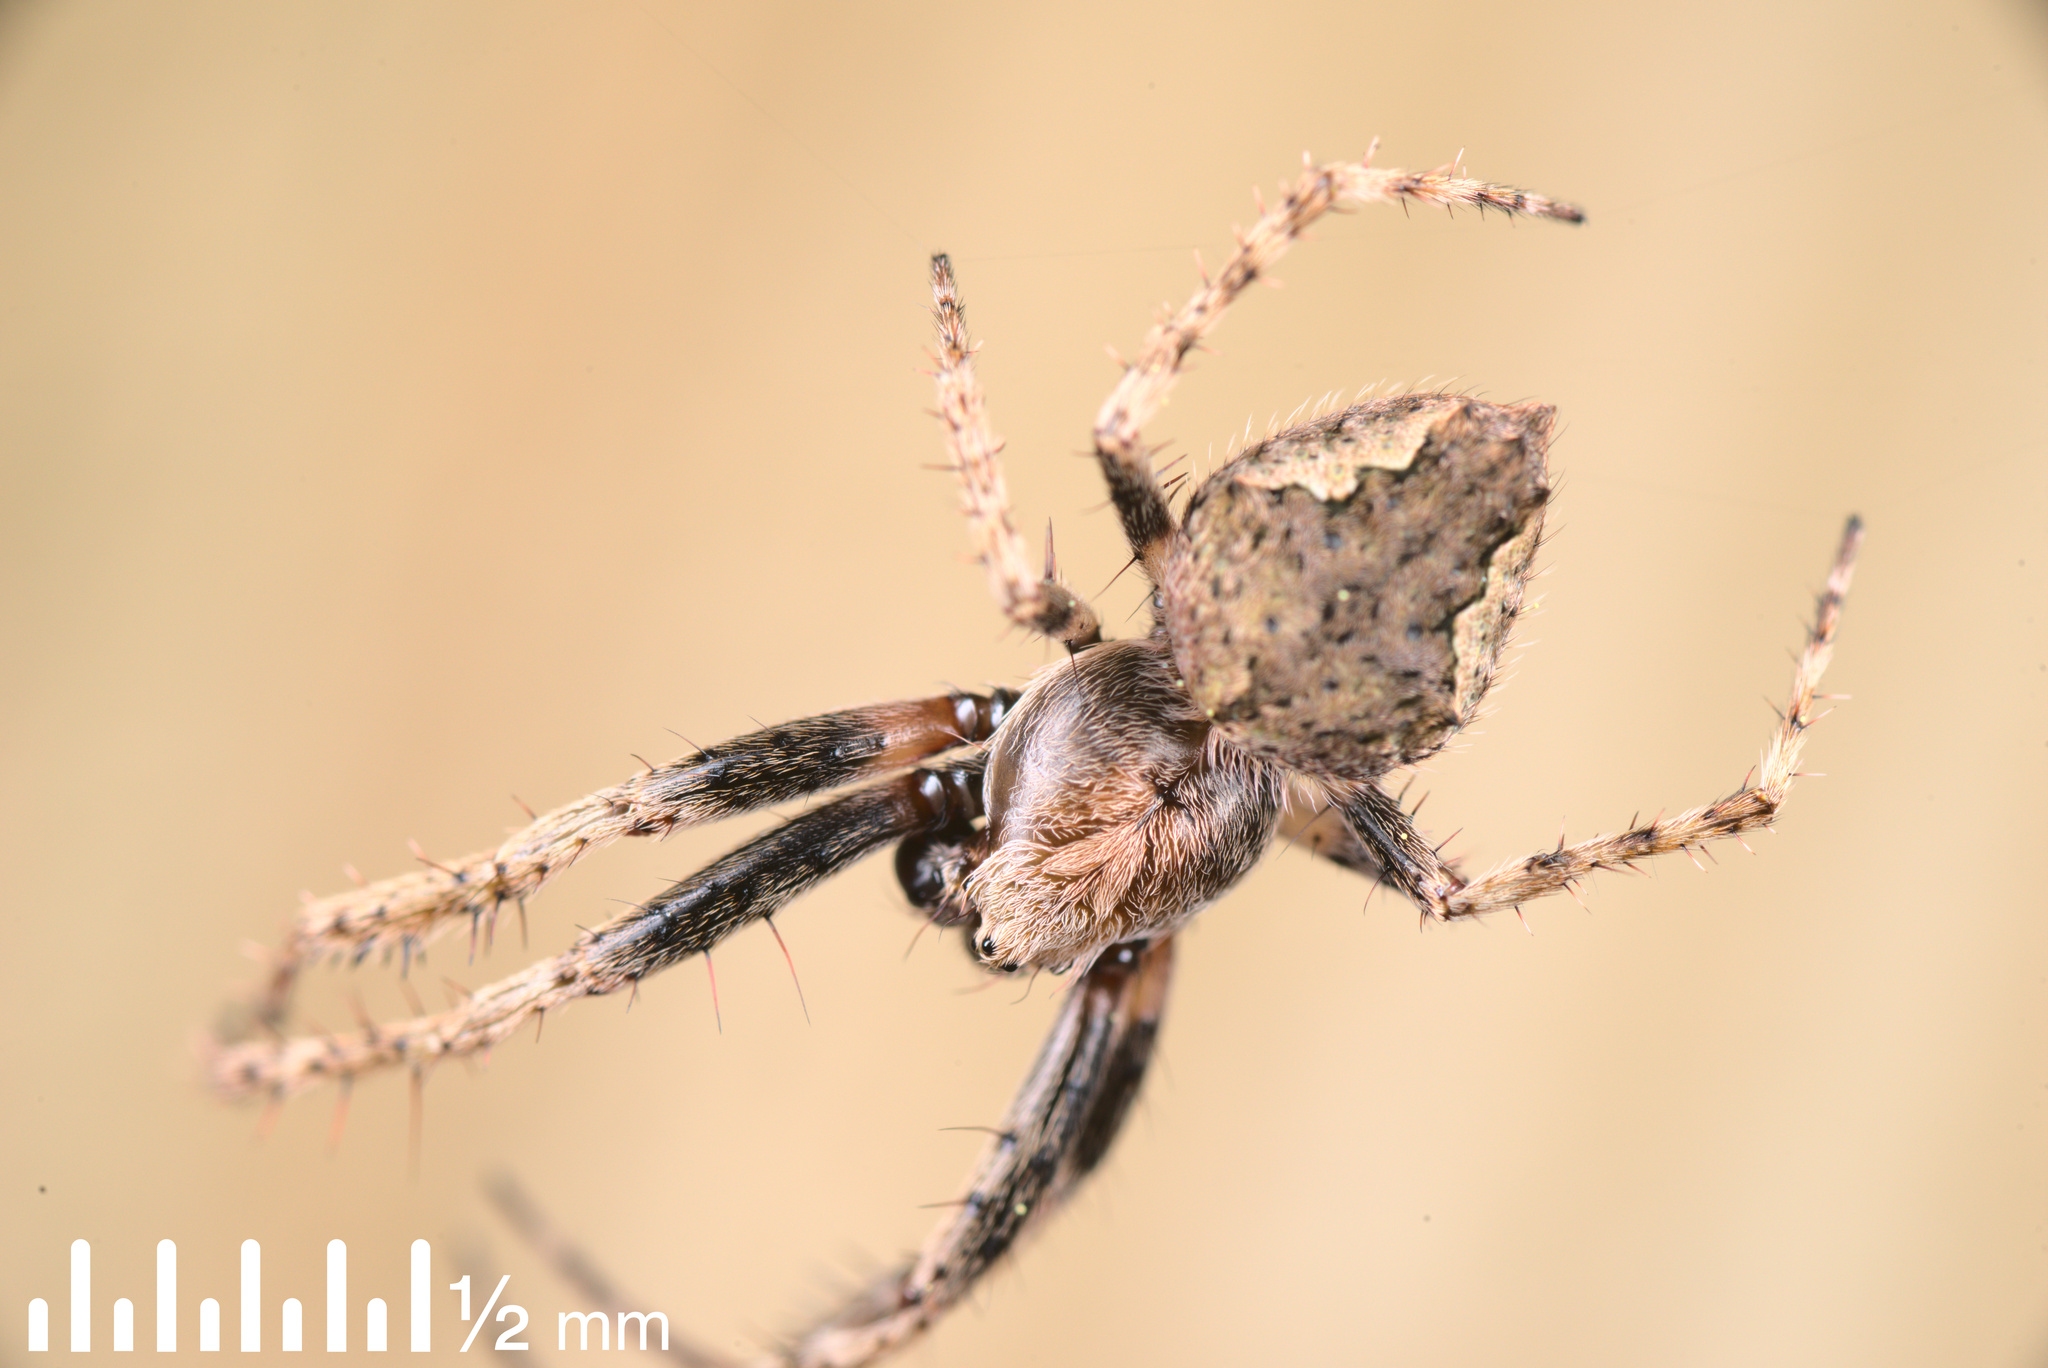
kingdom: Animalia
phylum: Arthropoda
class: Arachnida
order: Araneae
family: Araneidae
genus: Eriophora
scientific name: Eriophora pustulosa
